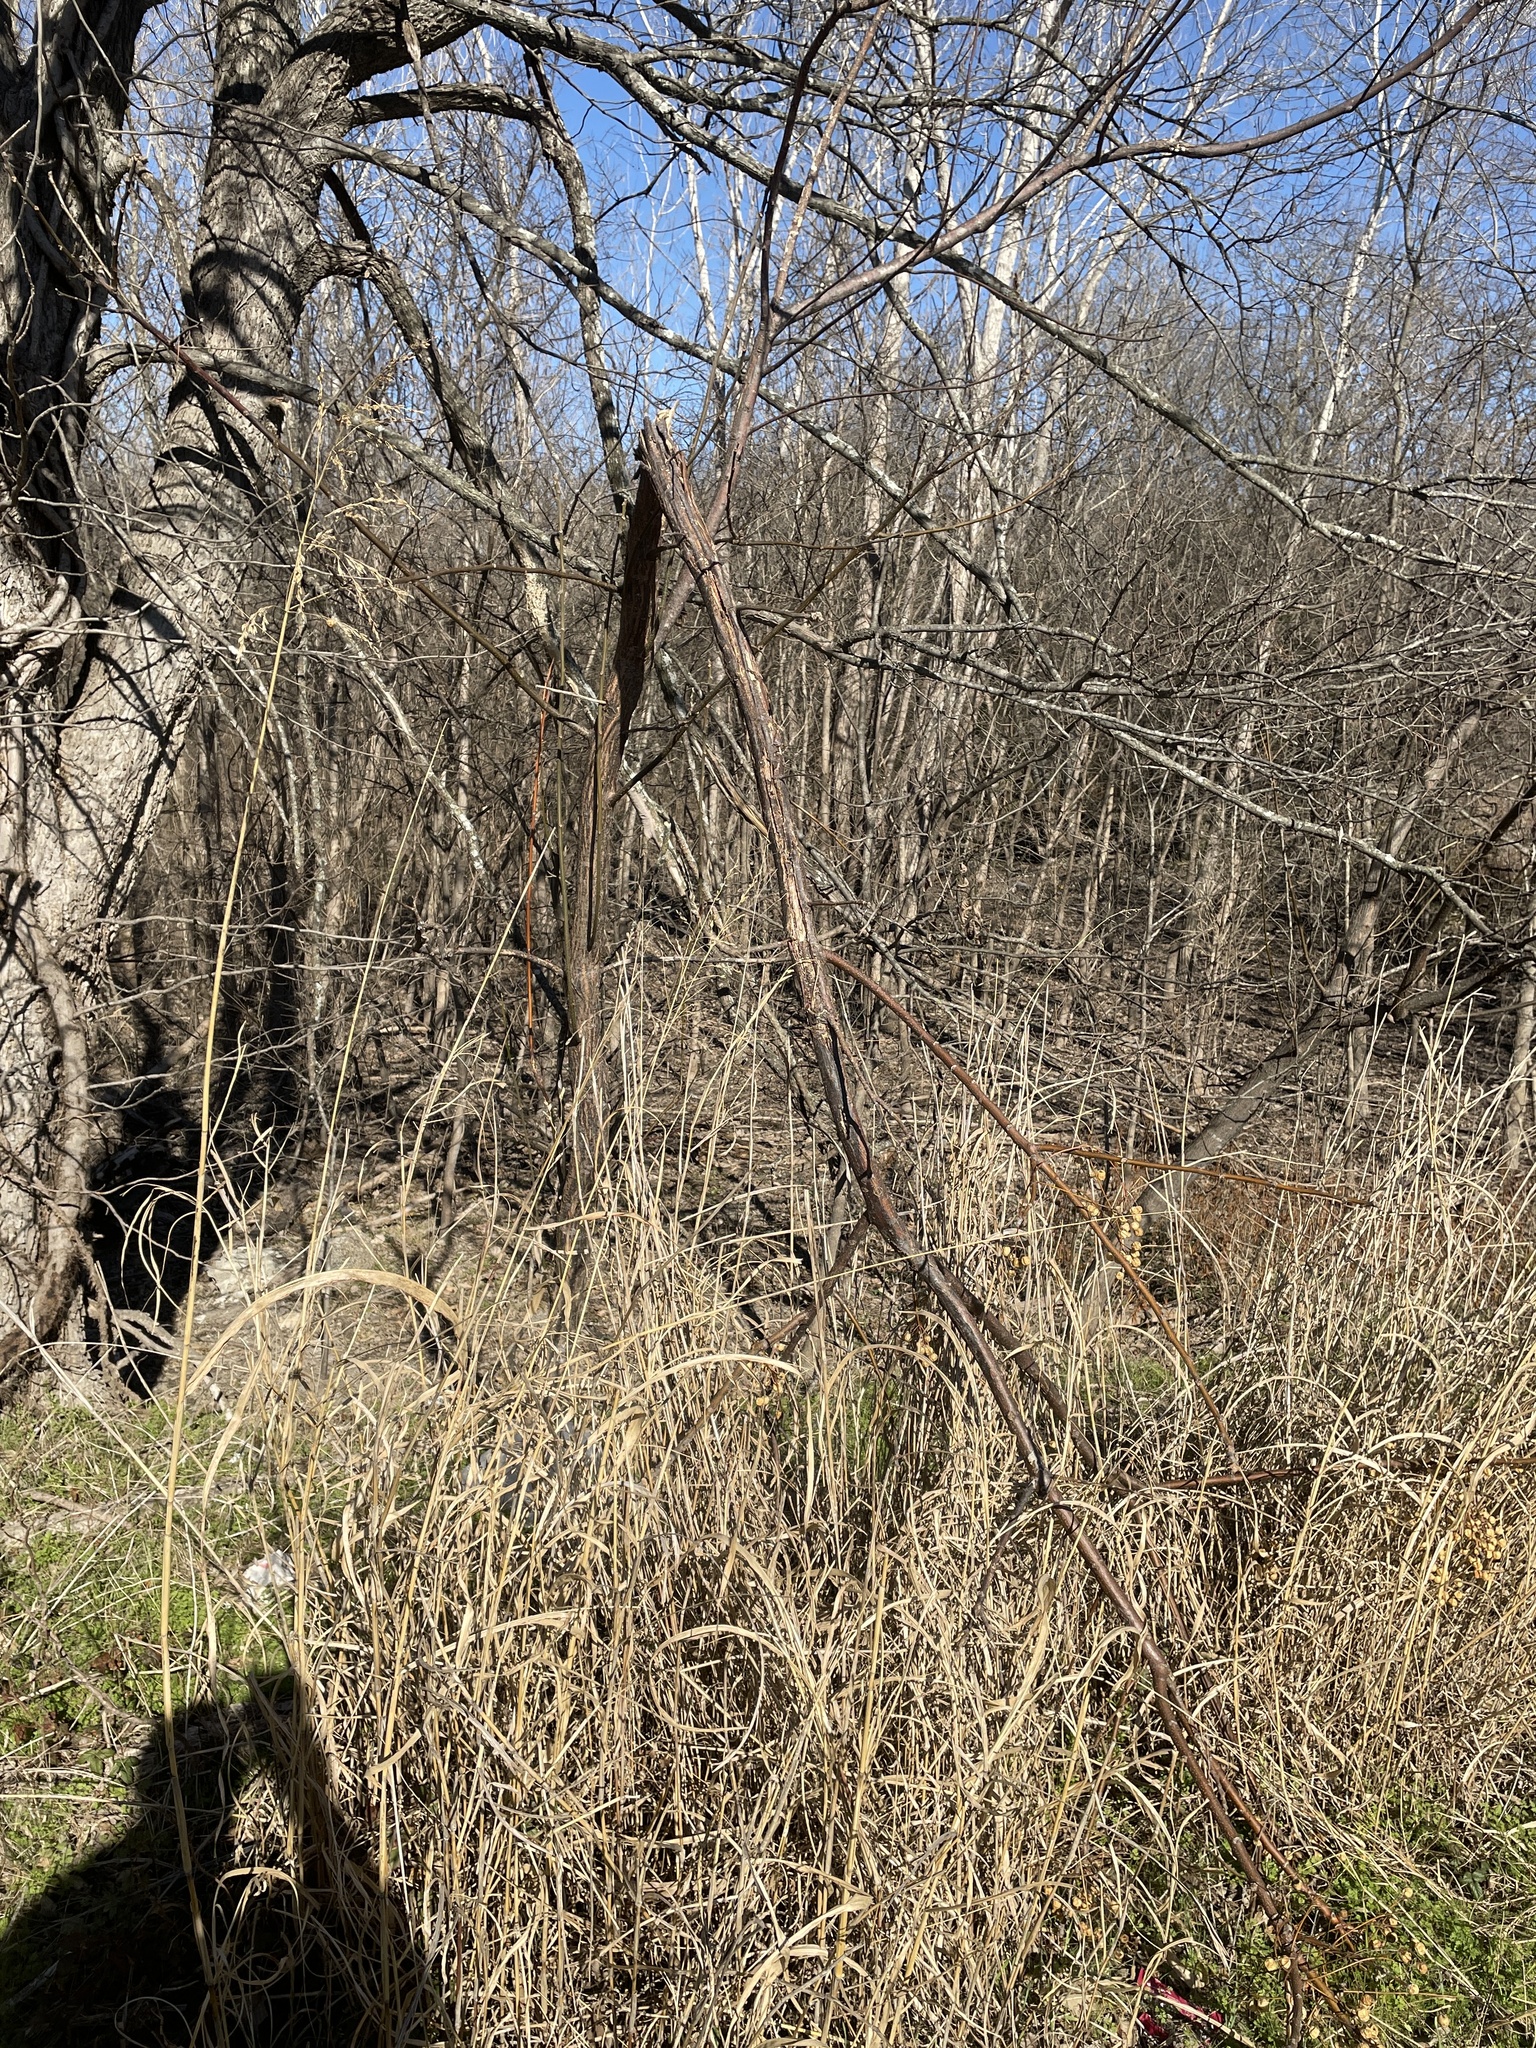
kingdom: Plantae
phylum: Tracheophyta
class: Magnoliopsida
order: Sapindales
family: Meliaceae
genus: Melia
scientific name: Melia azedarach
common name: Chinaberrytree
